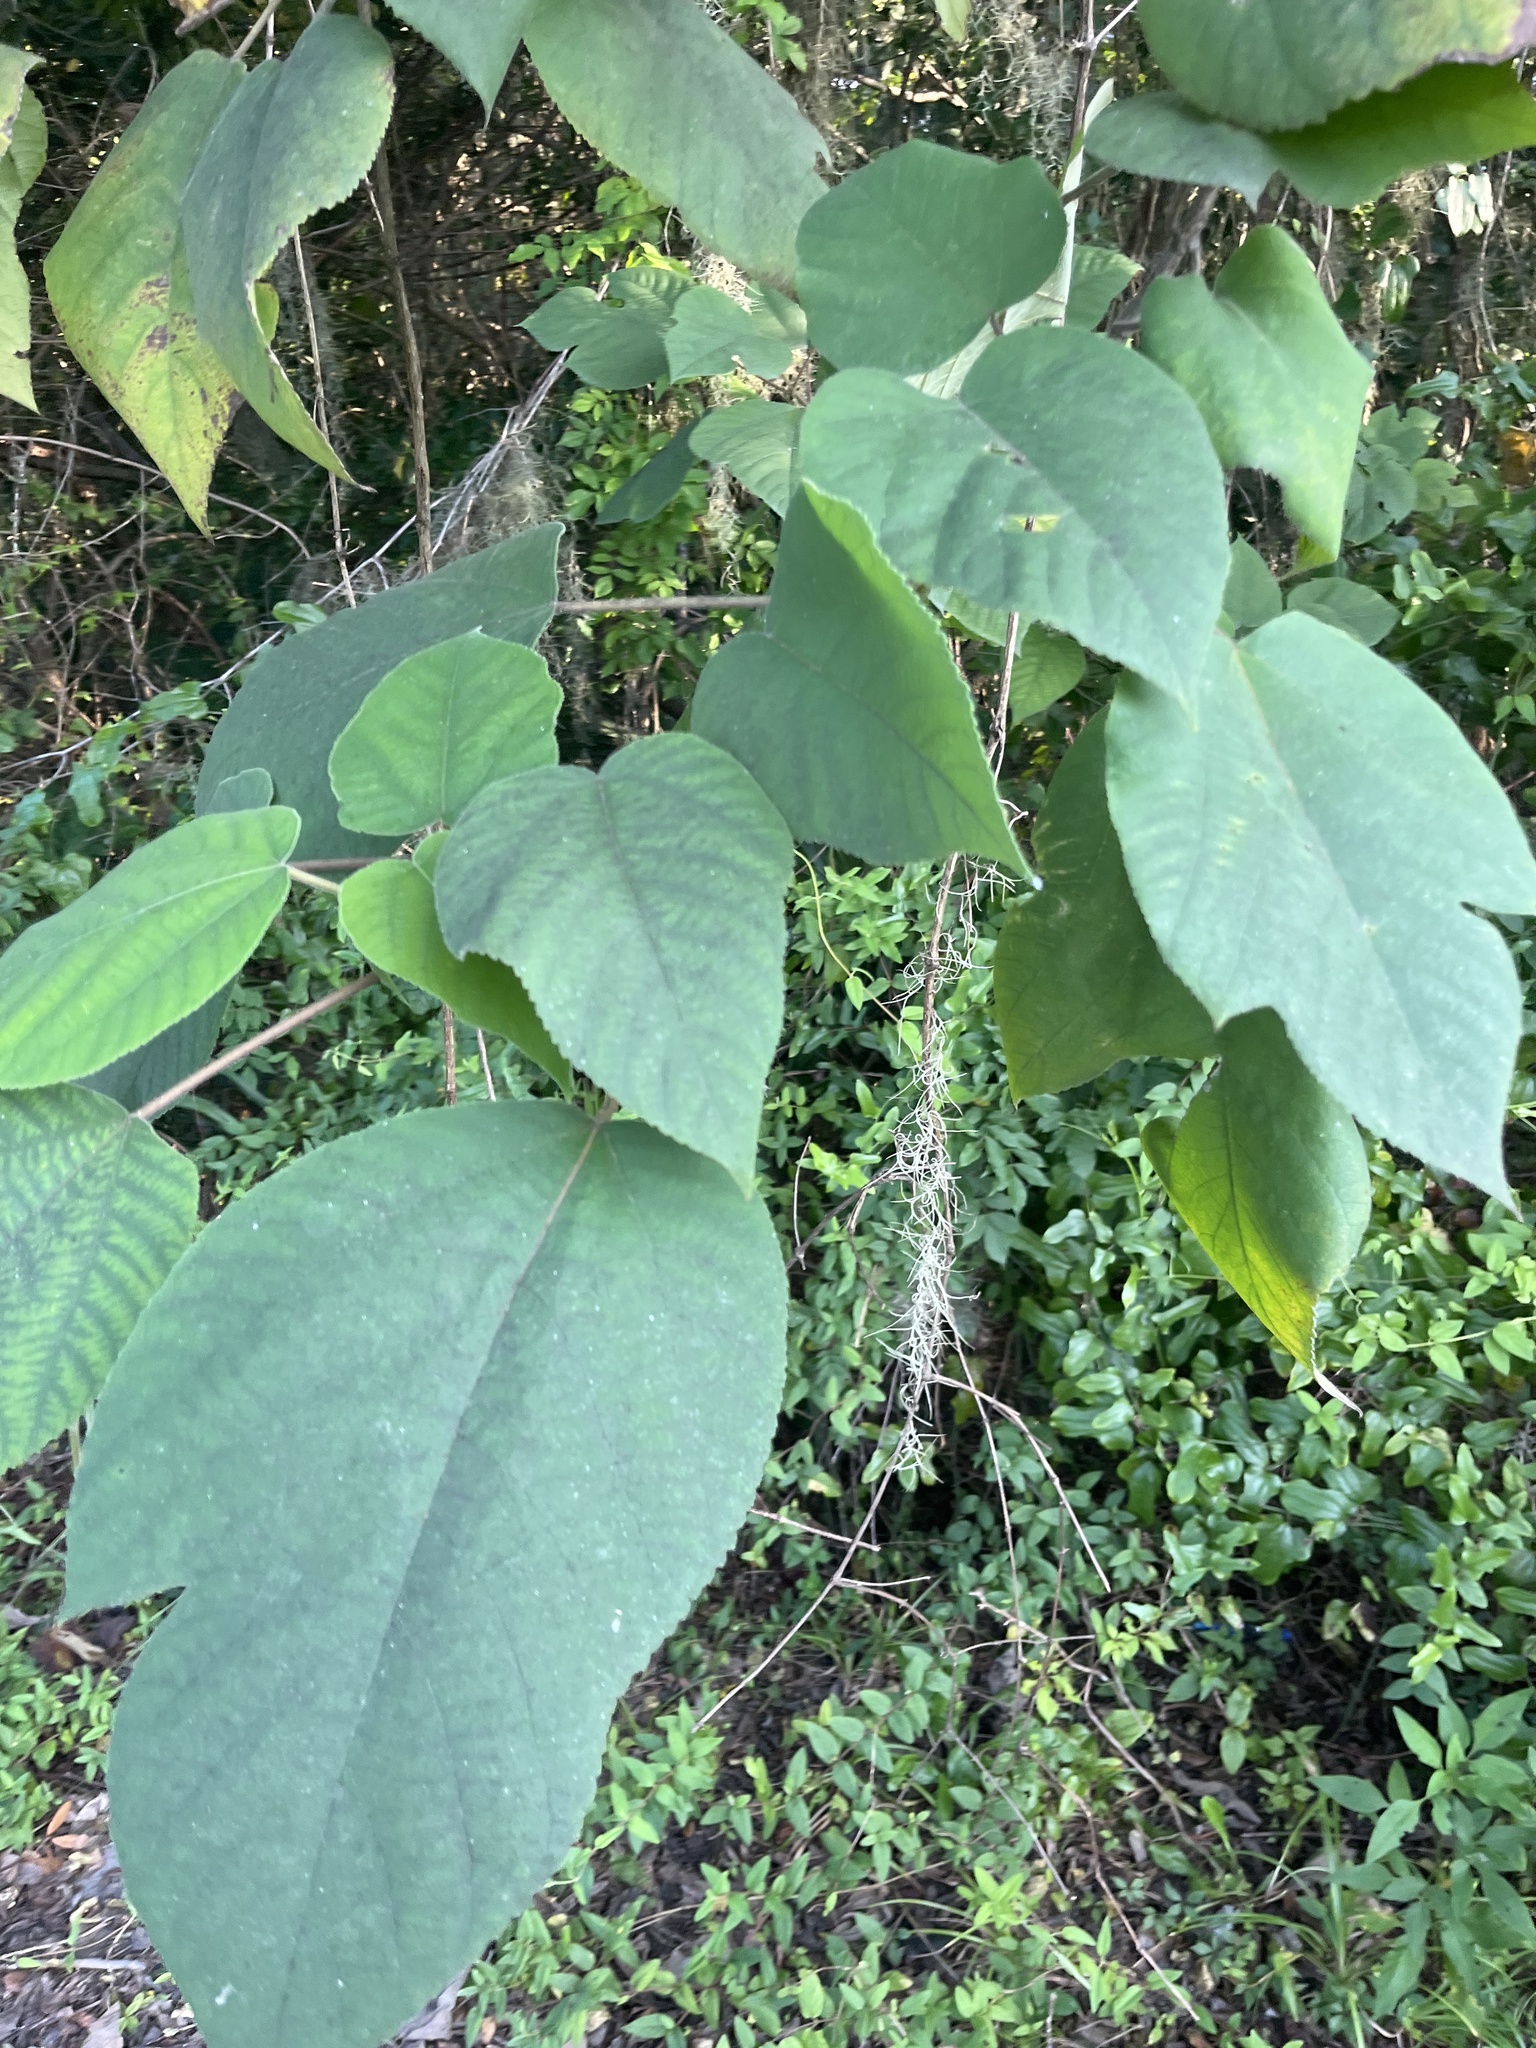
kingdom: Plantae
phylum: Tracheophyta
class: Magnoliopsida
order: Rosales
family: Moraceae
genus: Broussonetia
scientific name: Broussonetia papyrifera
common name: Paper mulberry
